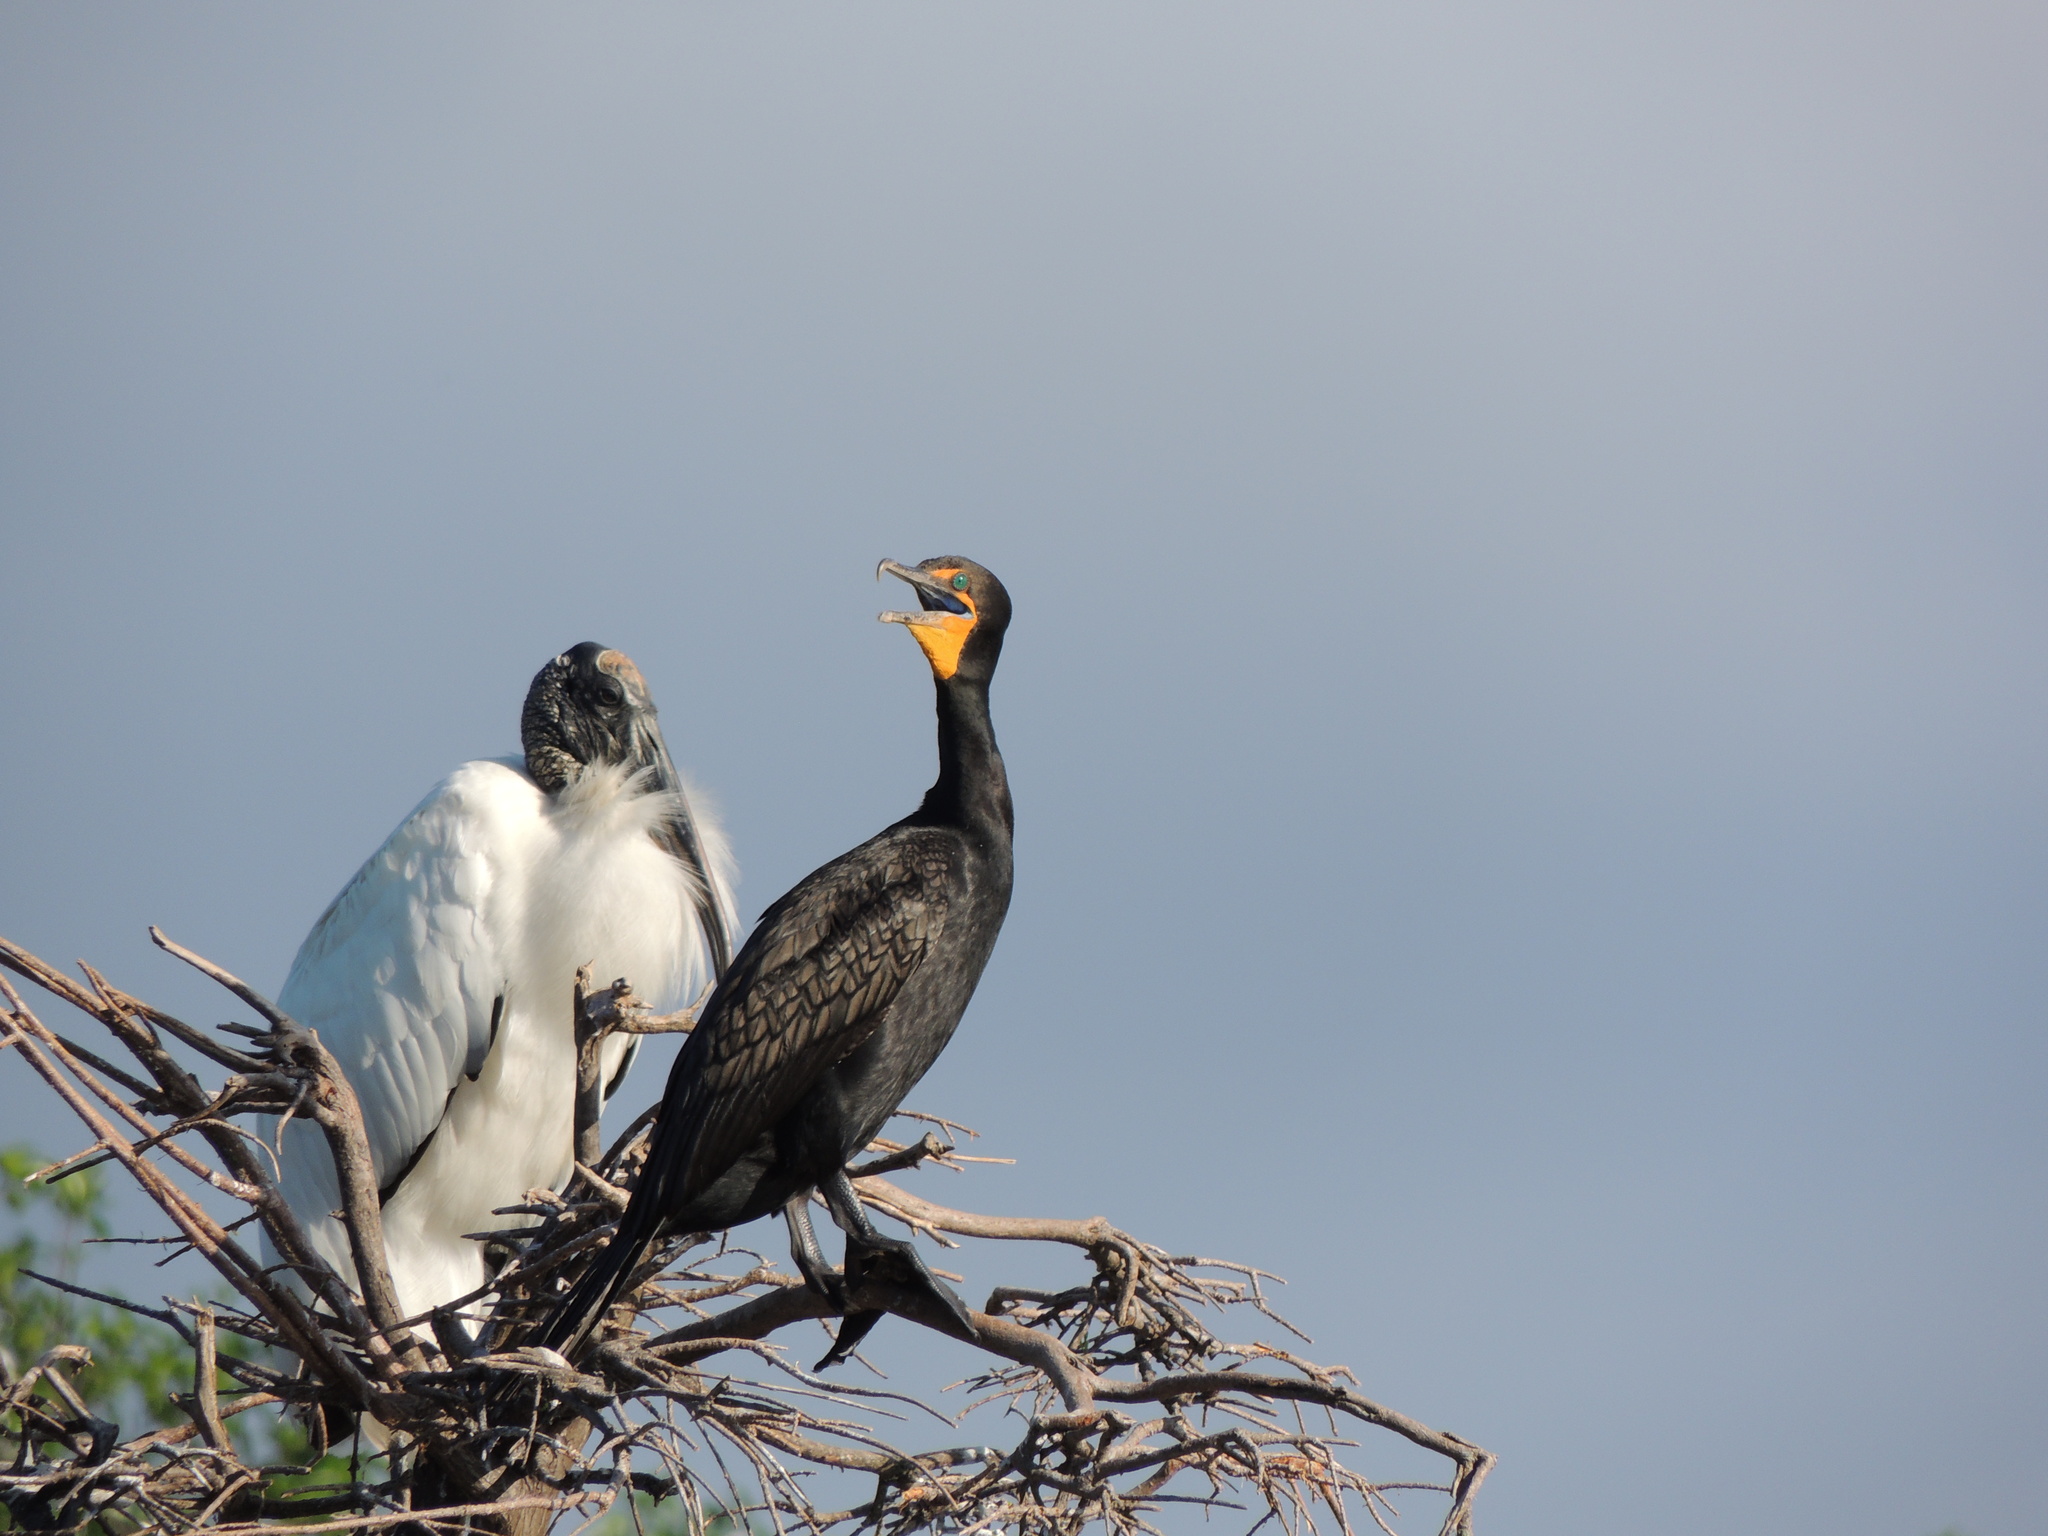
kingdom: Animalia
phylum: Chordata
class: Aves
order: Suliformes
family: Phalacrocoracidae
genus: Phalacrocorax
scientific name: Phalacrocorax auritus
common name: Double-crested cormorant
